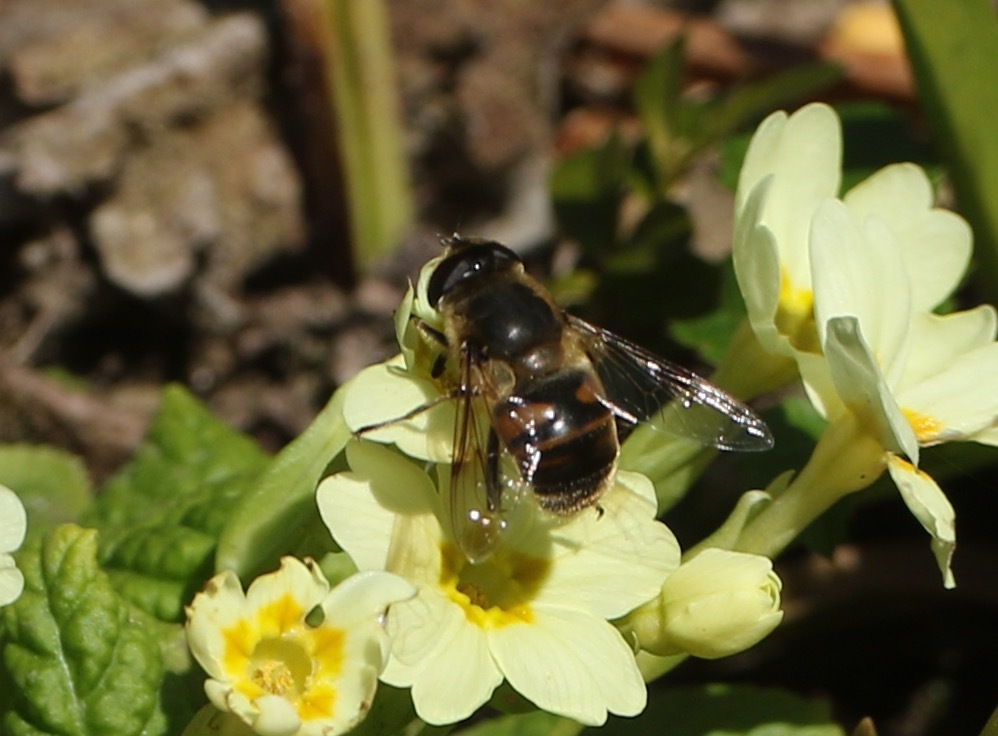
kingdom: Animalia
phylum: Arthropoda
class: Insecta
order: Diptera
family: Syrphidae
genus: Eristalis
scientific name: Eristalis tenax
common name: Drone fly
